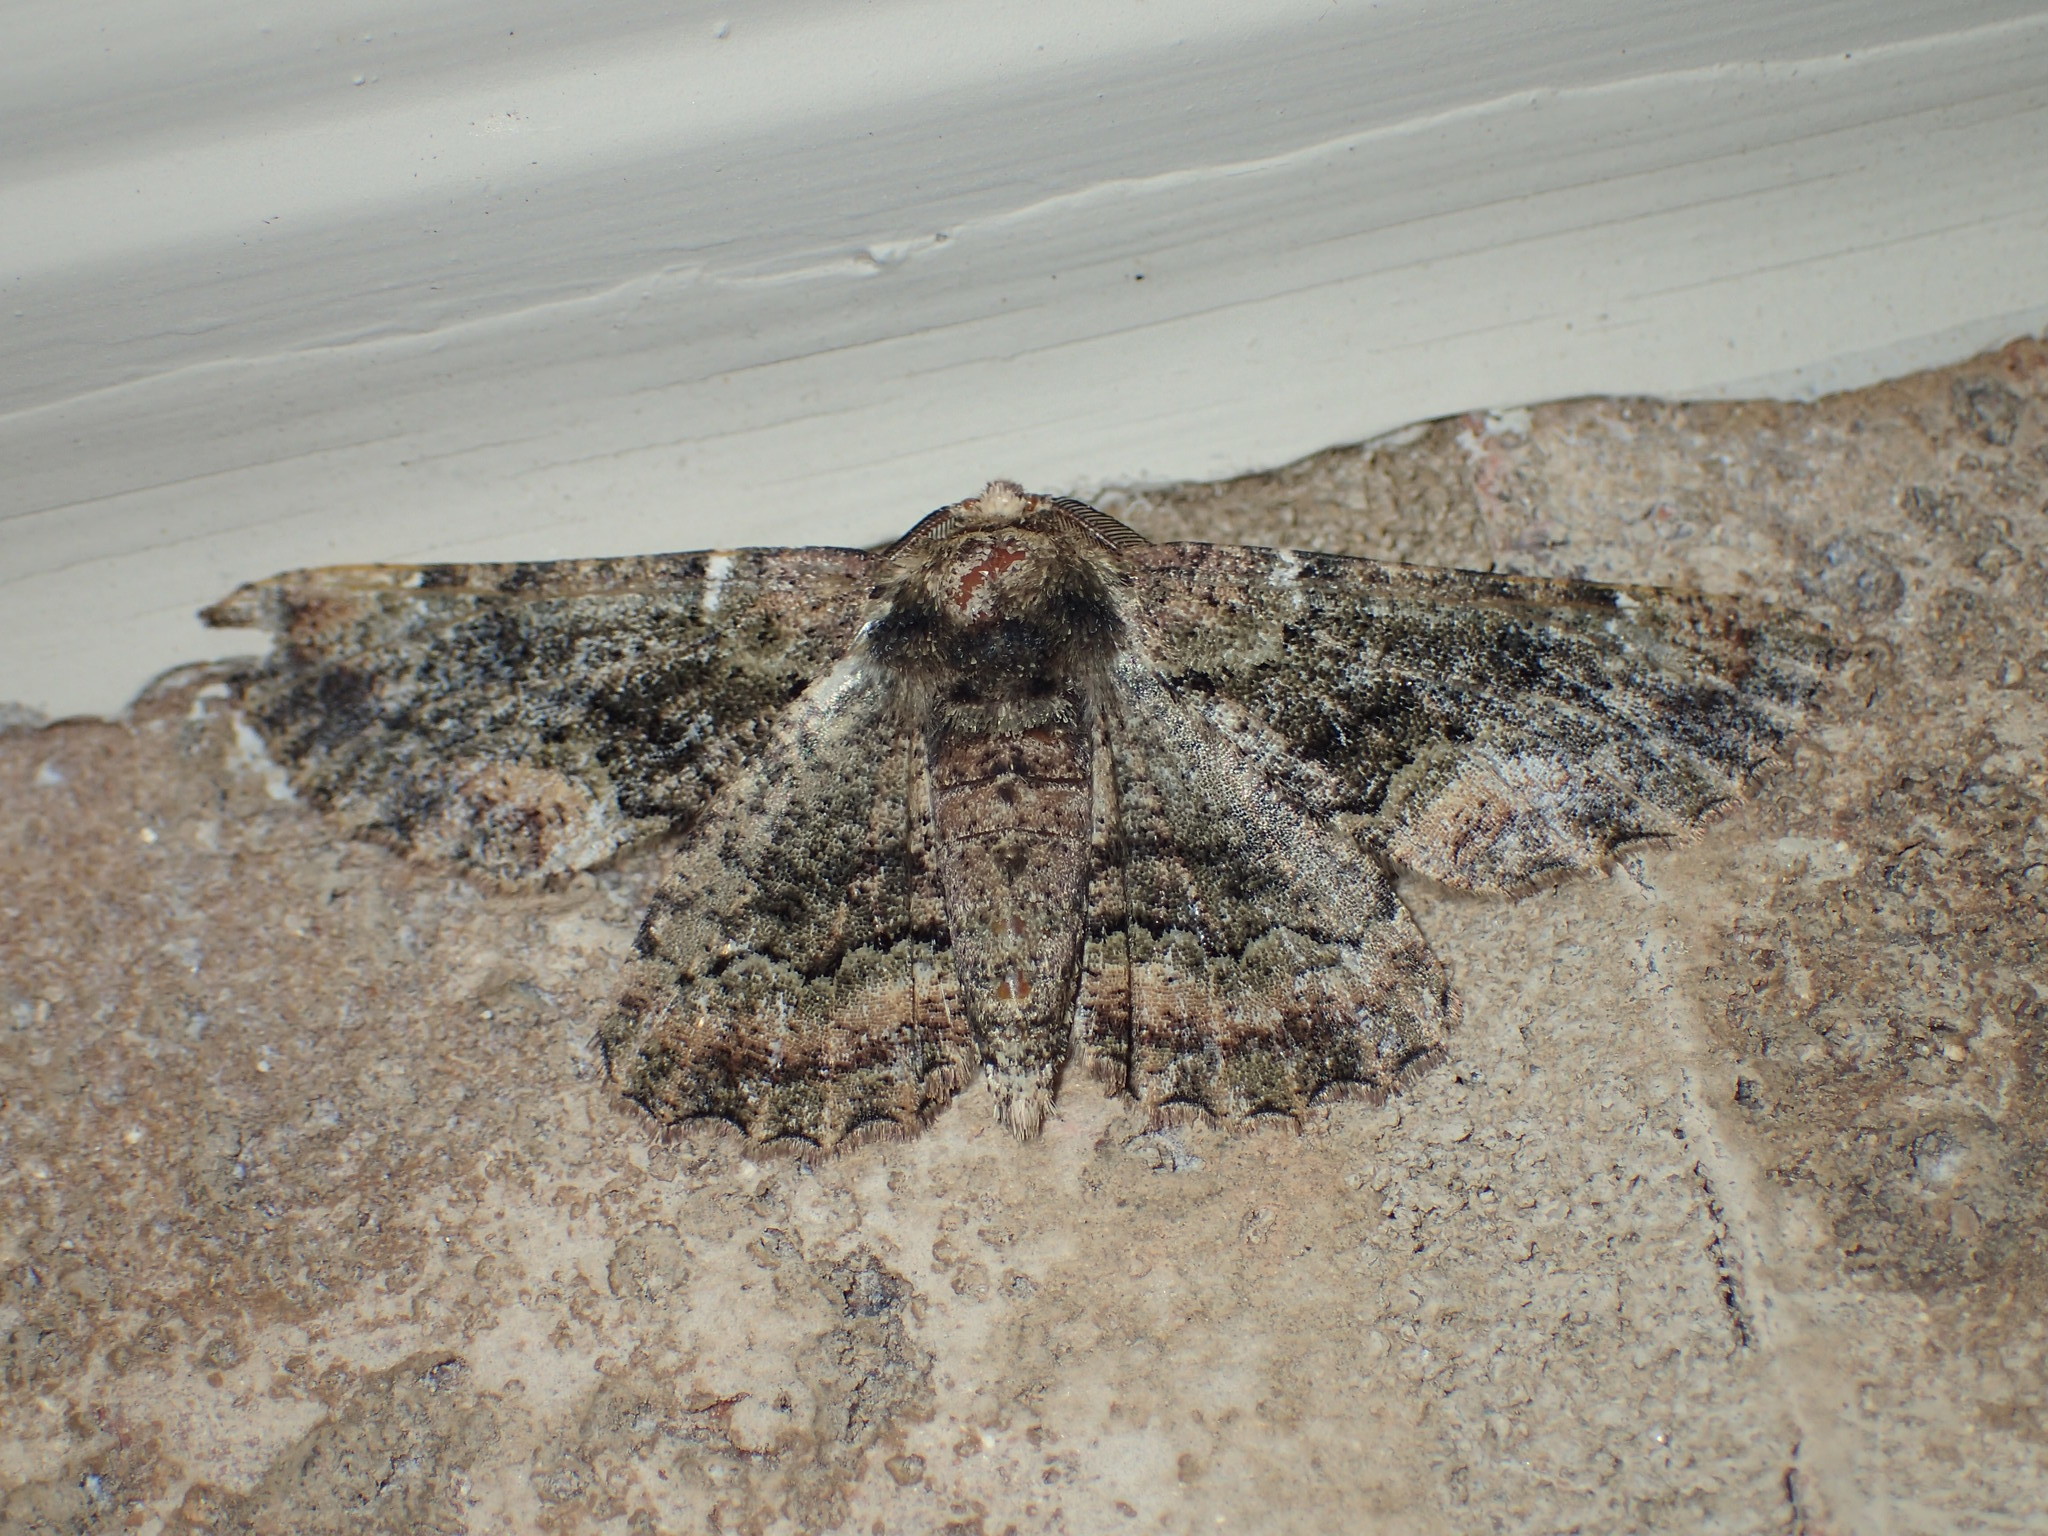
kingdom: Animalia
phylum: Arthropoda
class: Insecta
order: Lepidoptera
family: Geometridae
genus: Phaeoura
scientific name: Phaeoura quernaria
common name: Oak beauty
